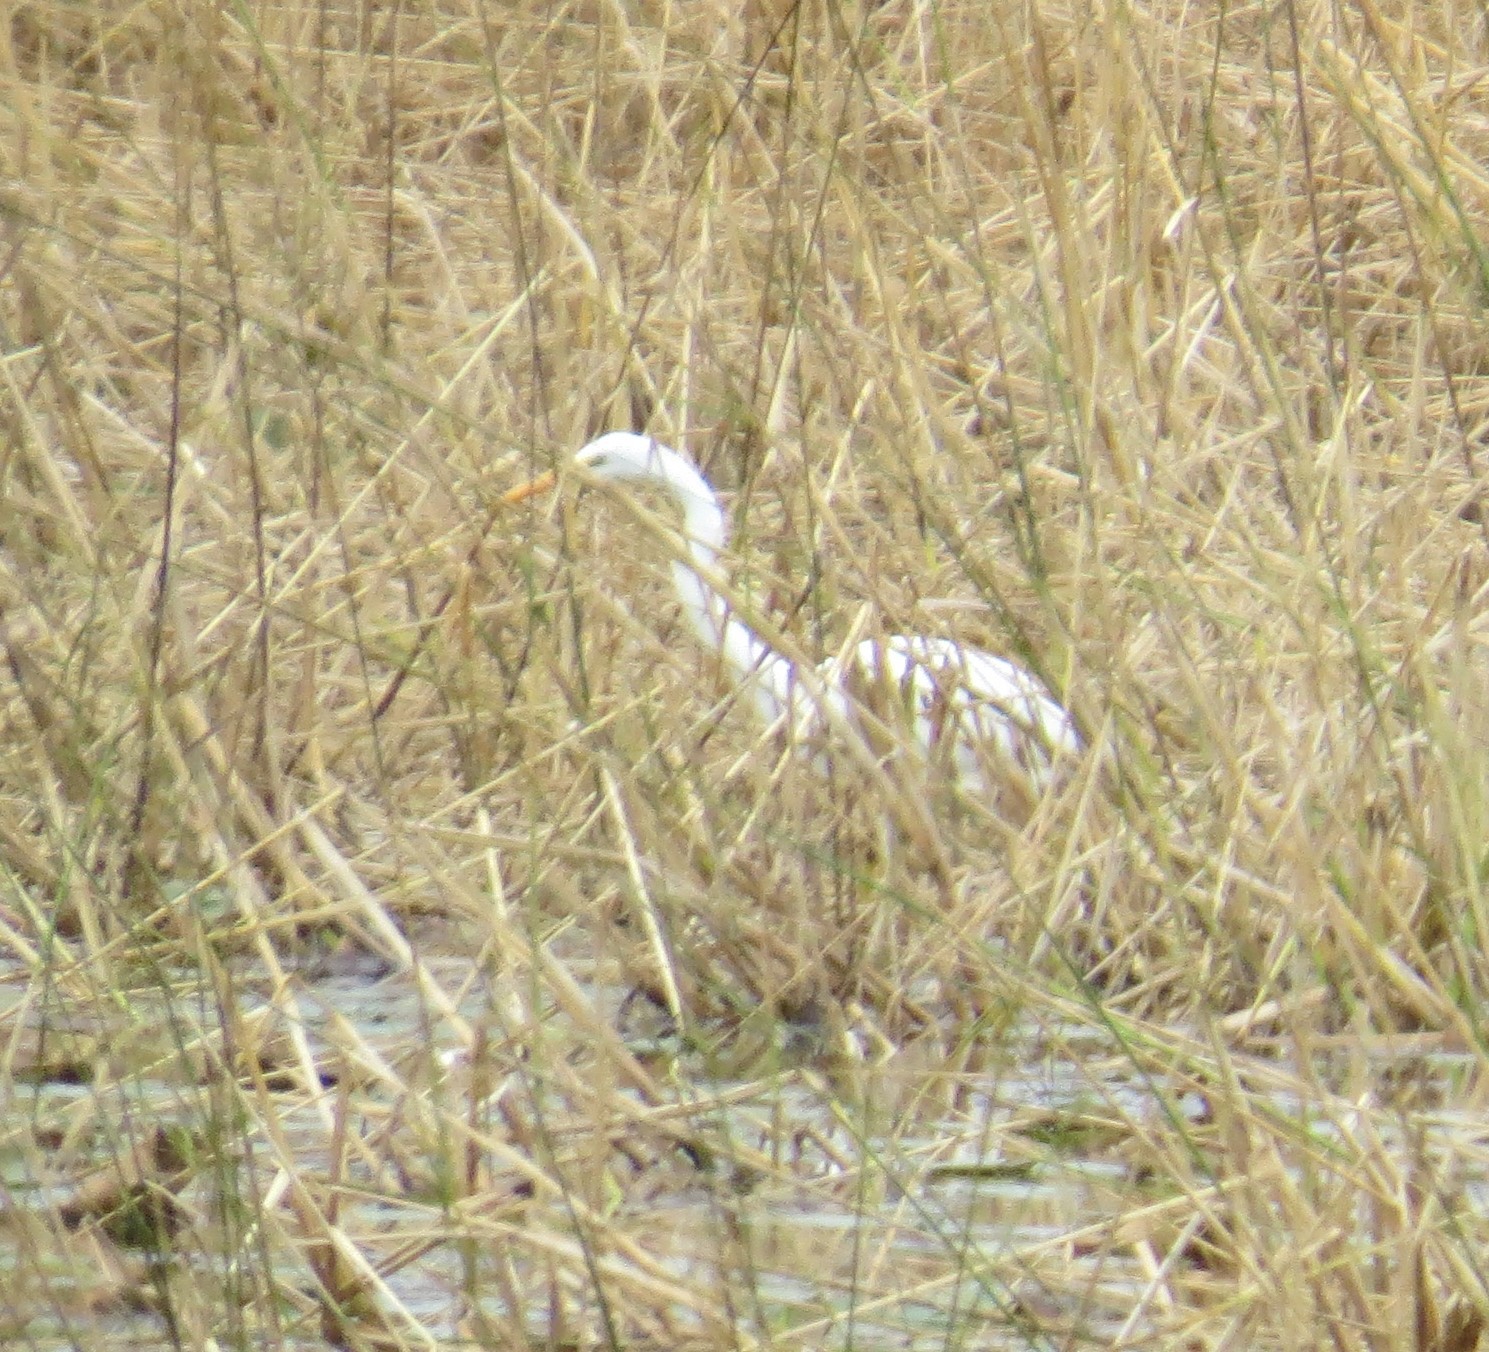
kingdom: Animalia
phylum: Chordata
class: Aves
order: Pelecaniformes
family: Ardeidae
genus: Ardea
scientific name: Ardea alba
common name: Great egret
